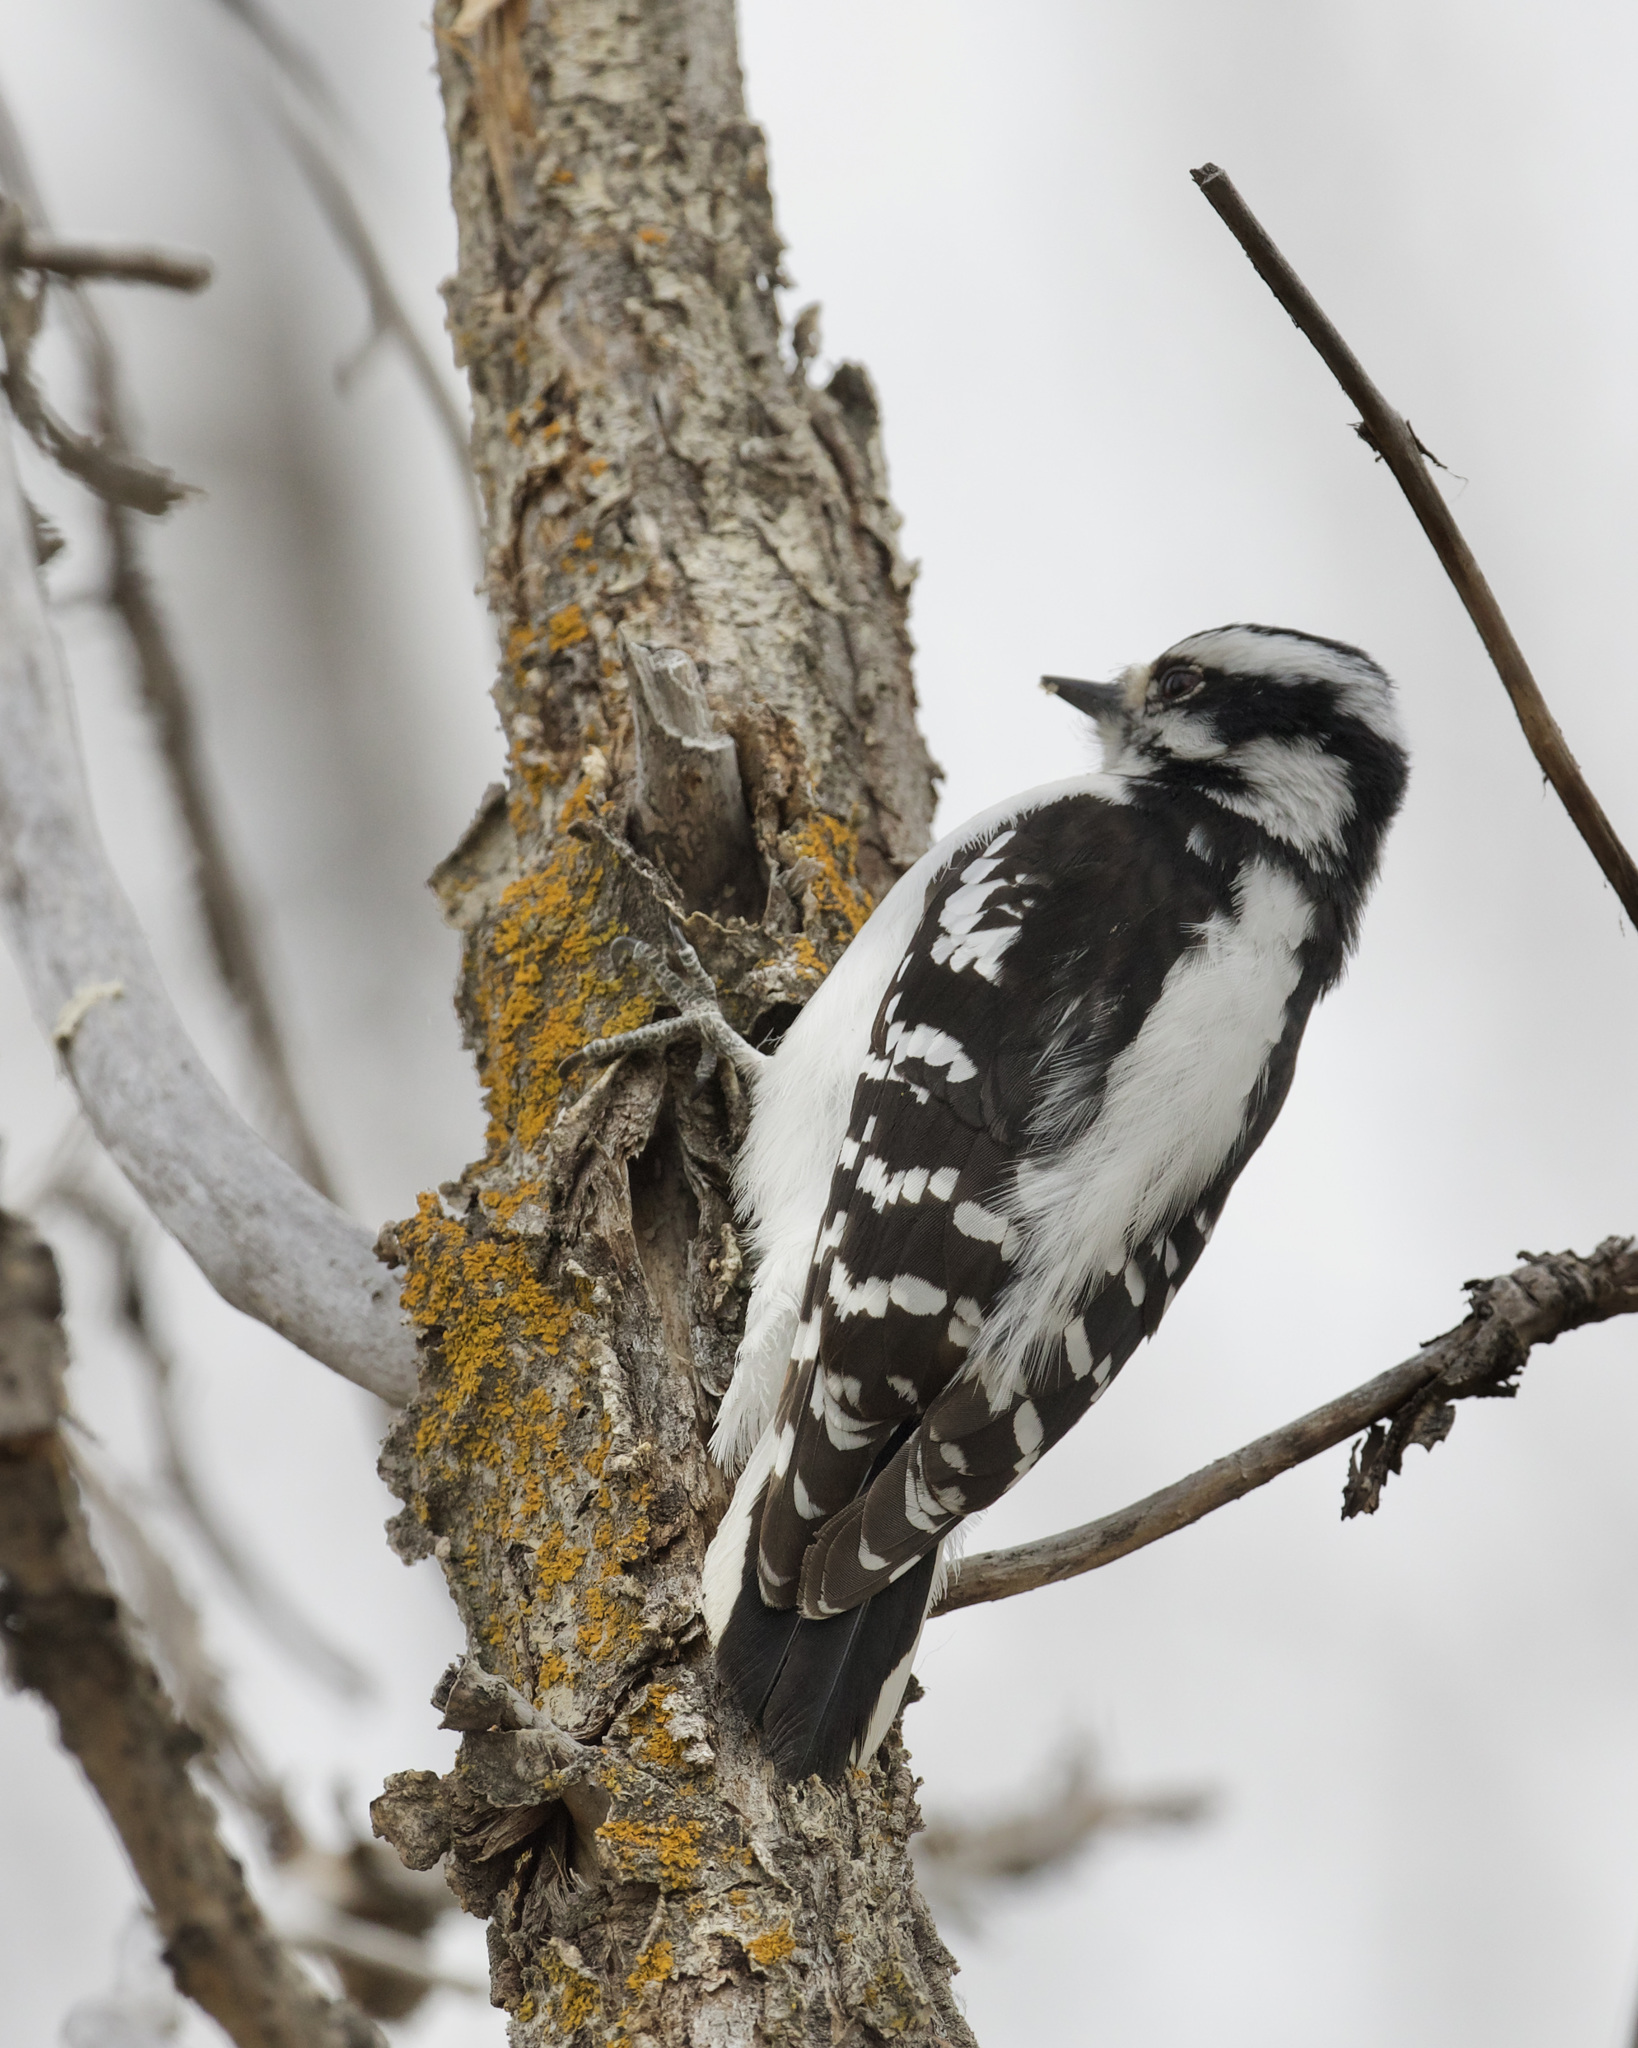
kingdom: Animalia
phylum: Chordata
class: Aves
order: Piciformes
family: Picidae
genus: Dryobates
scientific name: Dryobates pubescens
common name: Downy woodpecker
